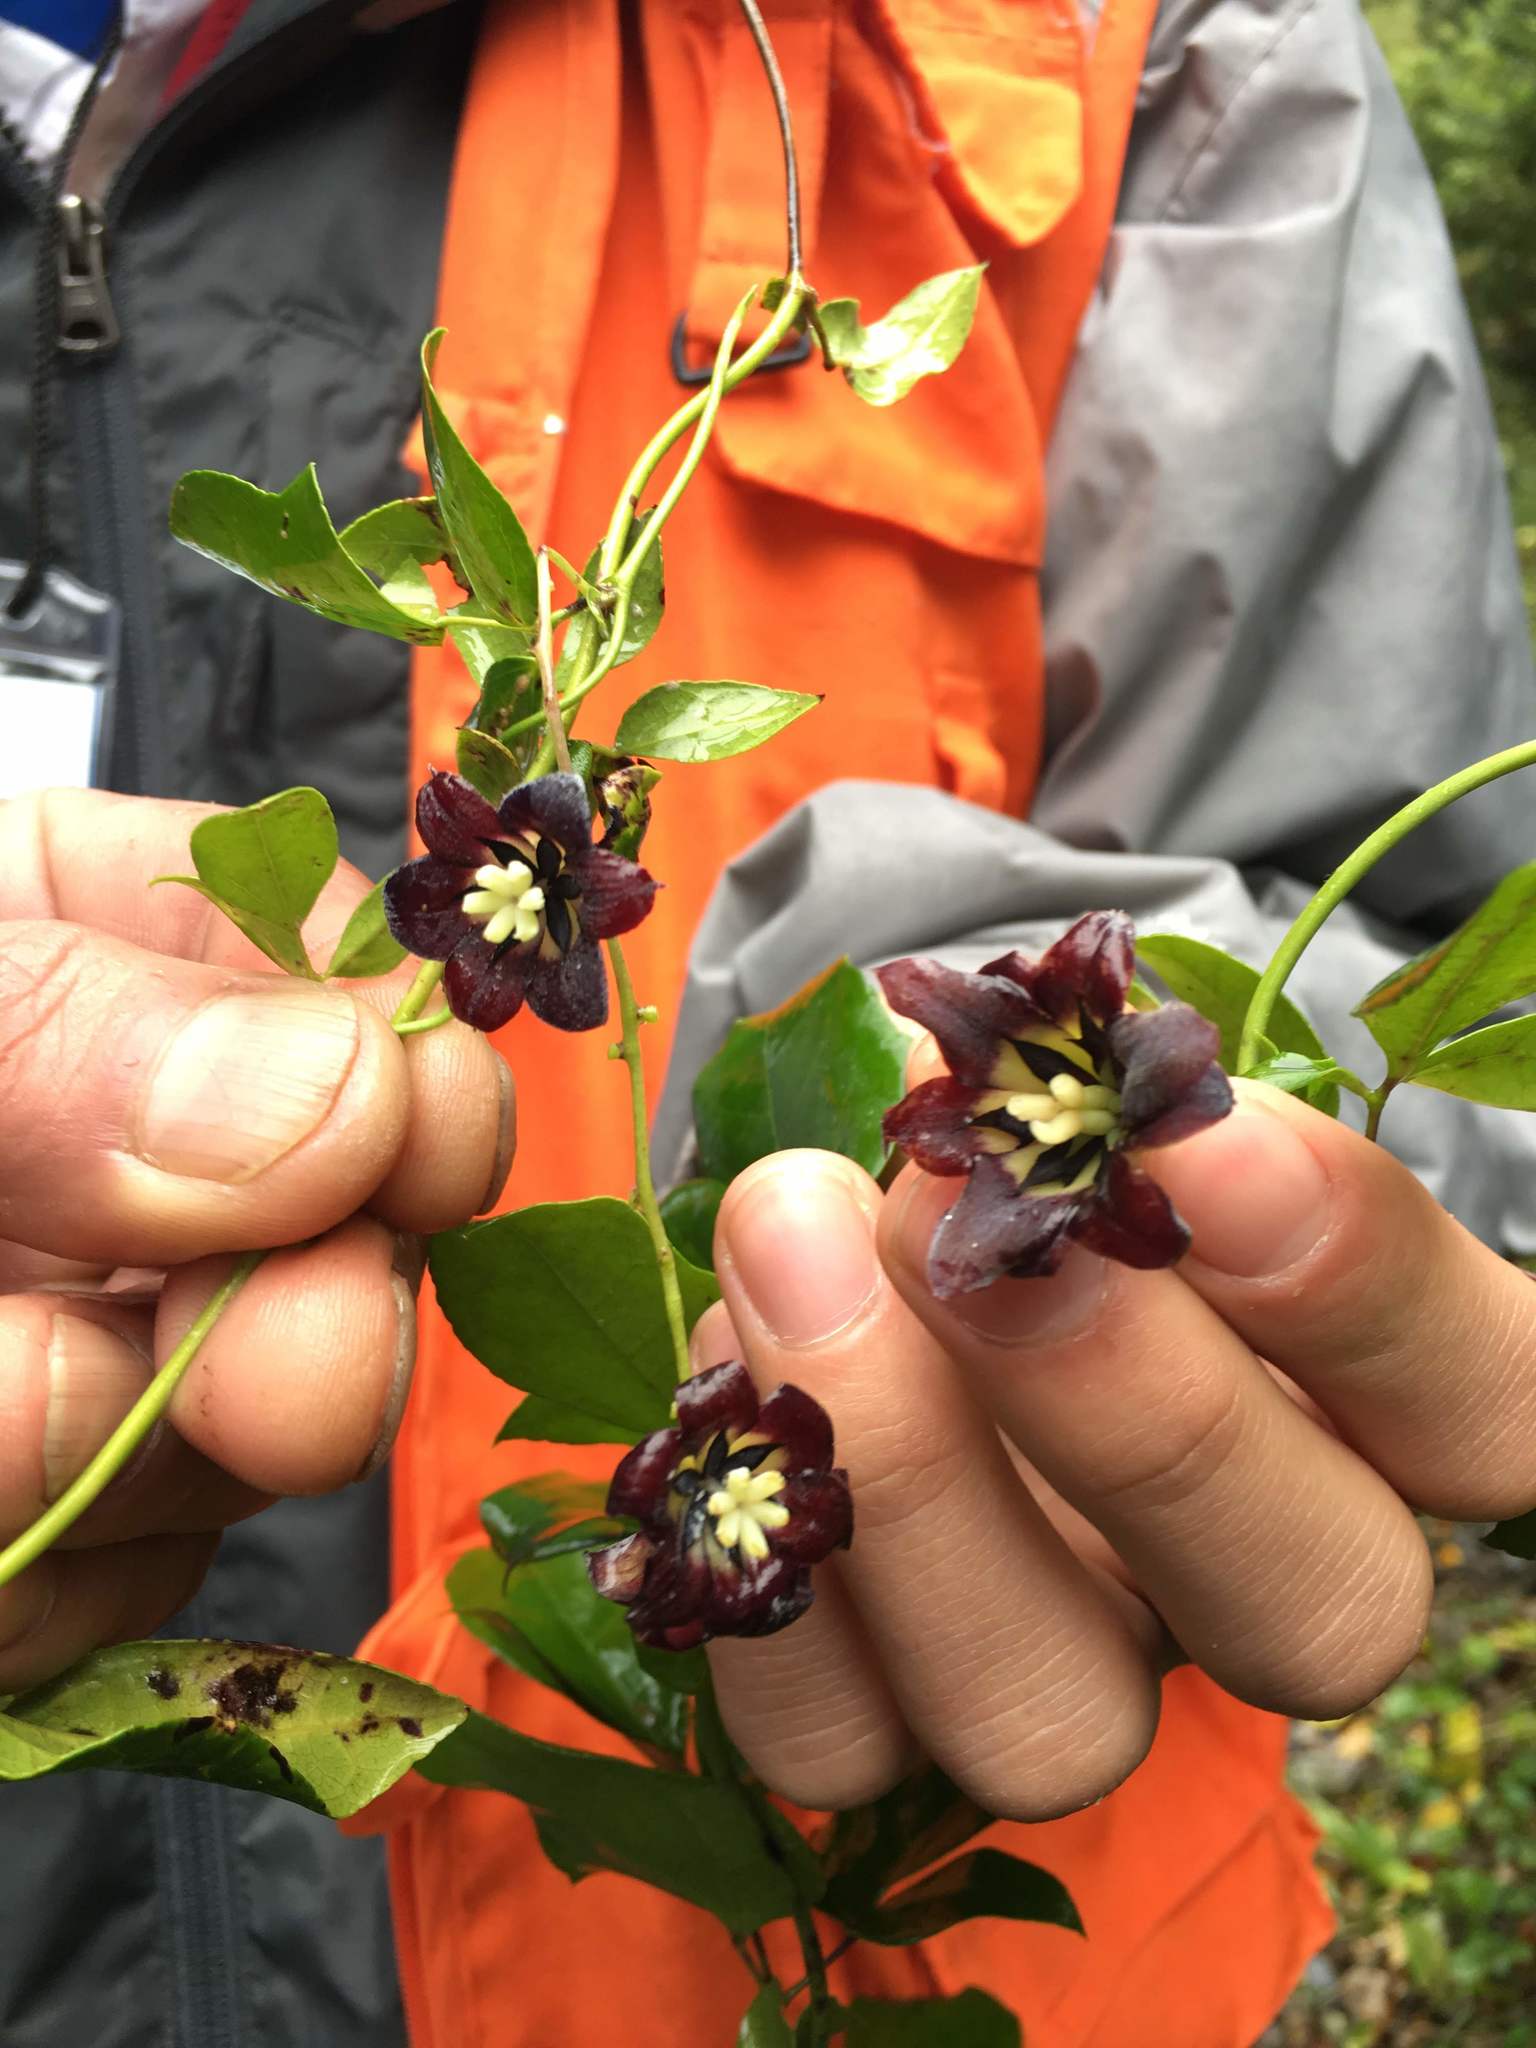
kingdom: Plantae
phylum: Tracheophyta
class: Magnoliopsida
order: Ranunculales
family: Lardizabalaceae
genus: Lardizabala
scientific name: Lardizabala funaria
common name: Zabala
